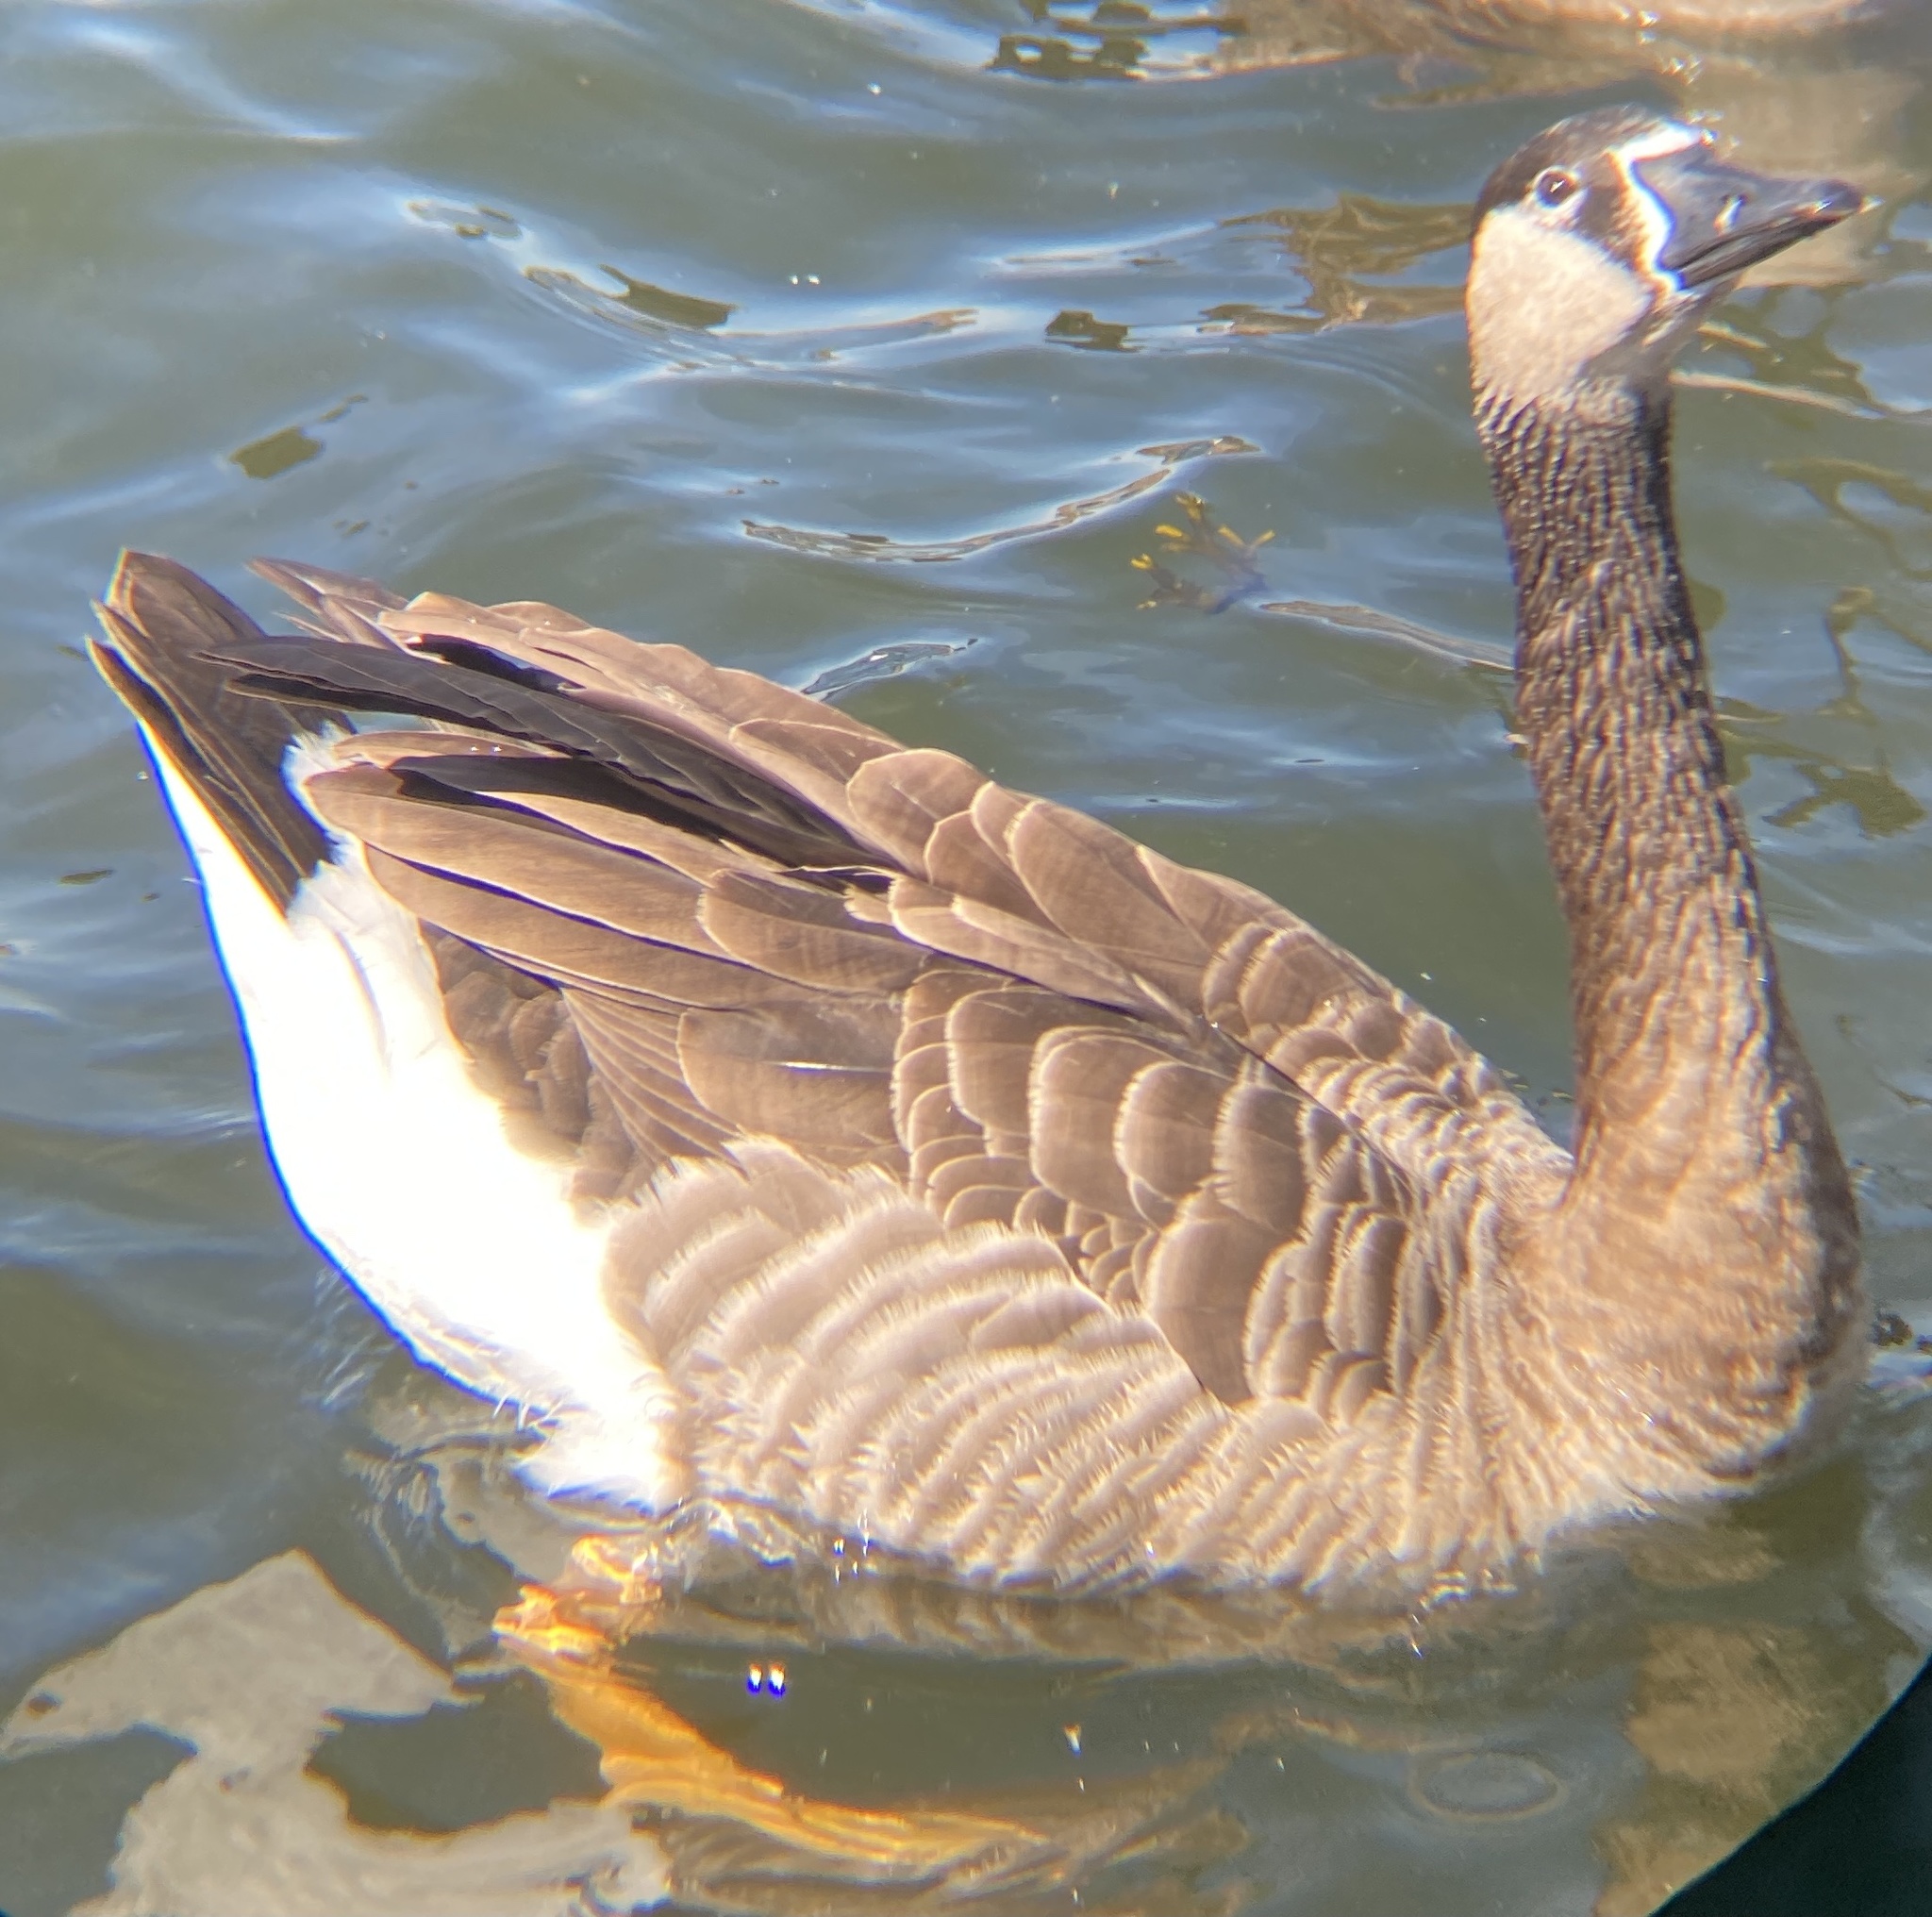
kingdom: Animalia
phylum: Chordata
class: Aves
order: Anseriformes
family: Anatidae
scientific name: Anatidae
